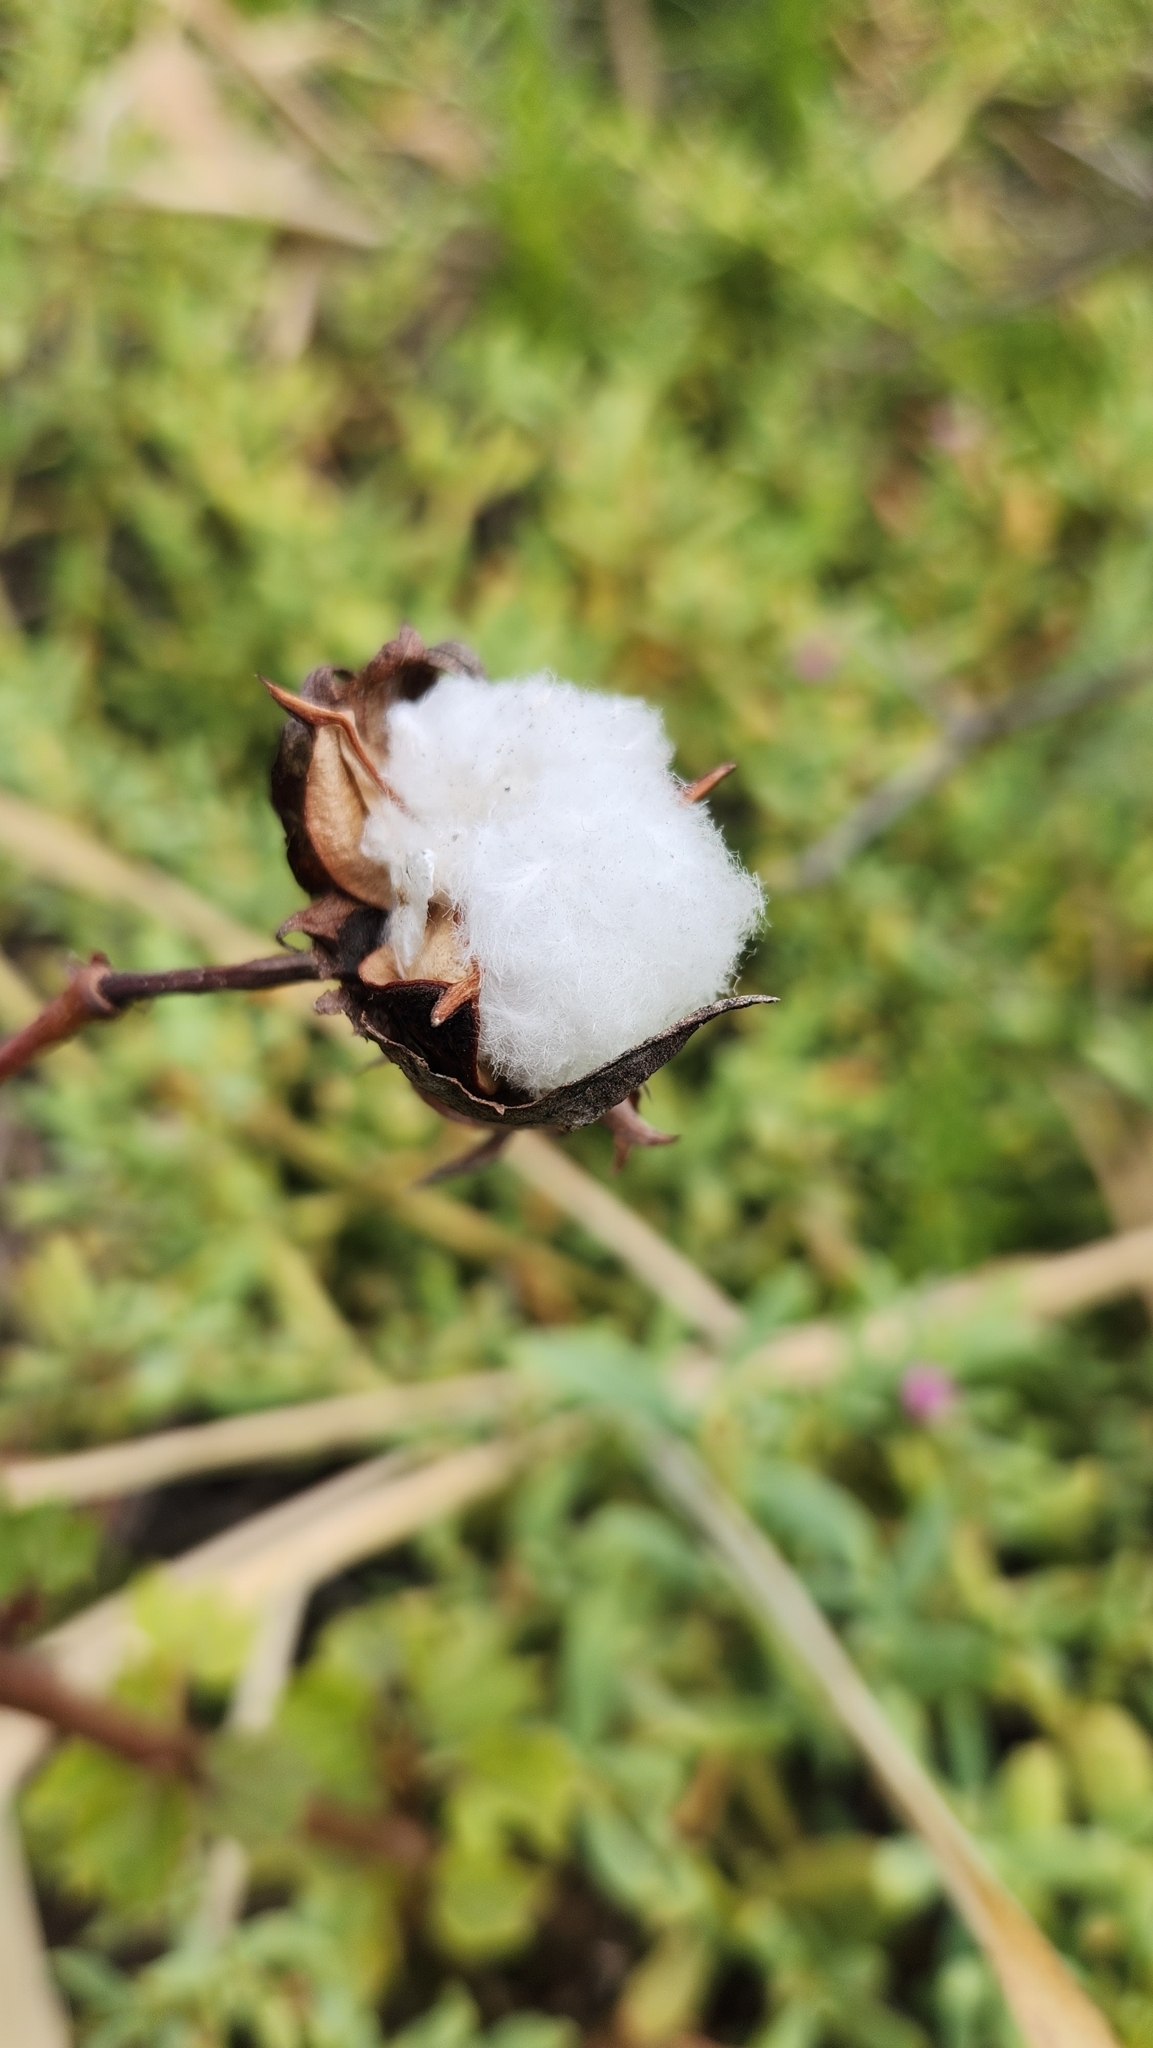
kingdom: Plantae
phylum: Tracheophyta
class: Magnoliopsida
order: Malvales
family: Malvaceae
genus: Gossypium
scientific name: Gossypium hirsutum
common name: Cotton
